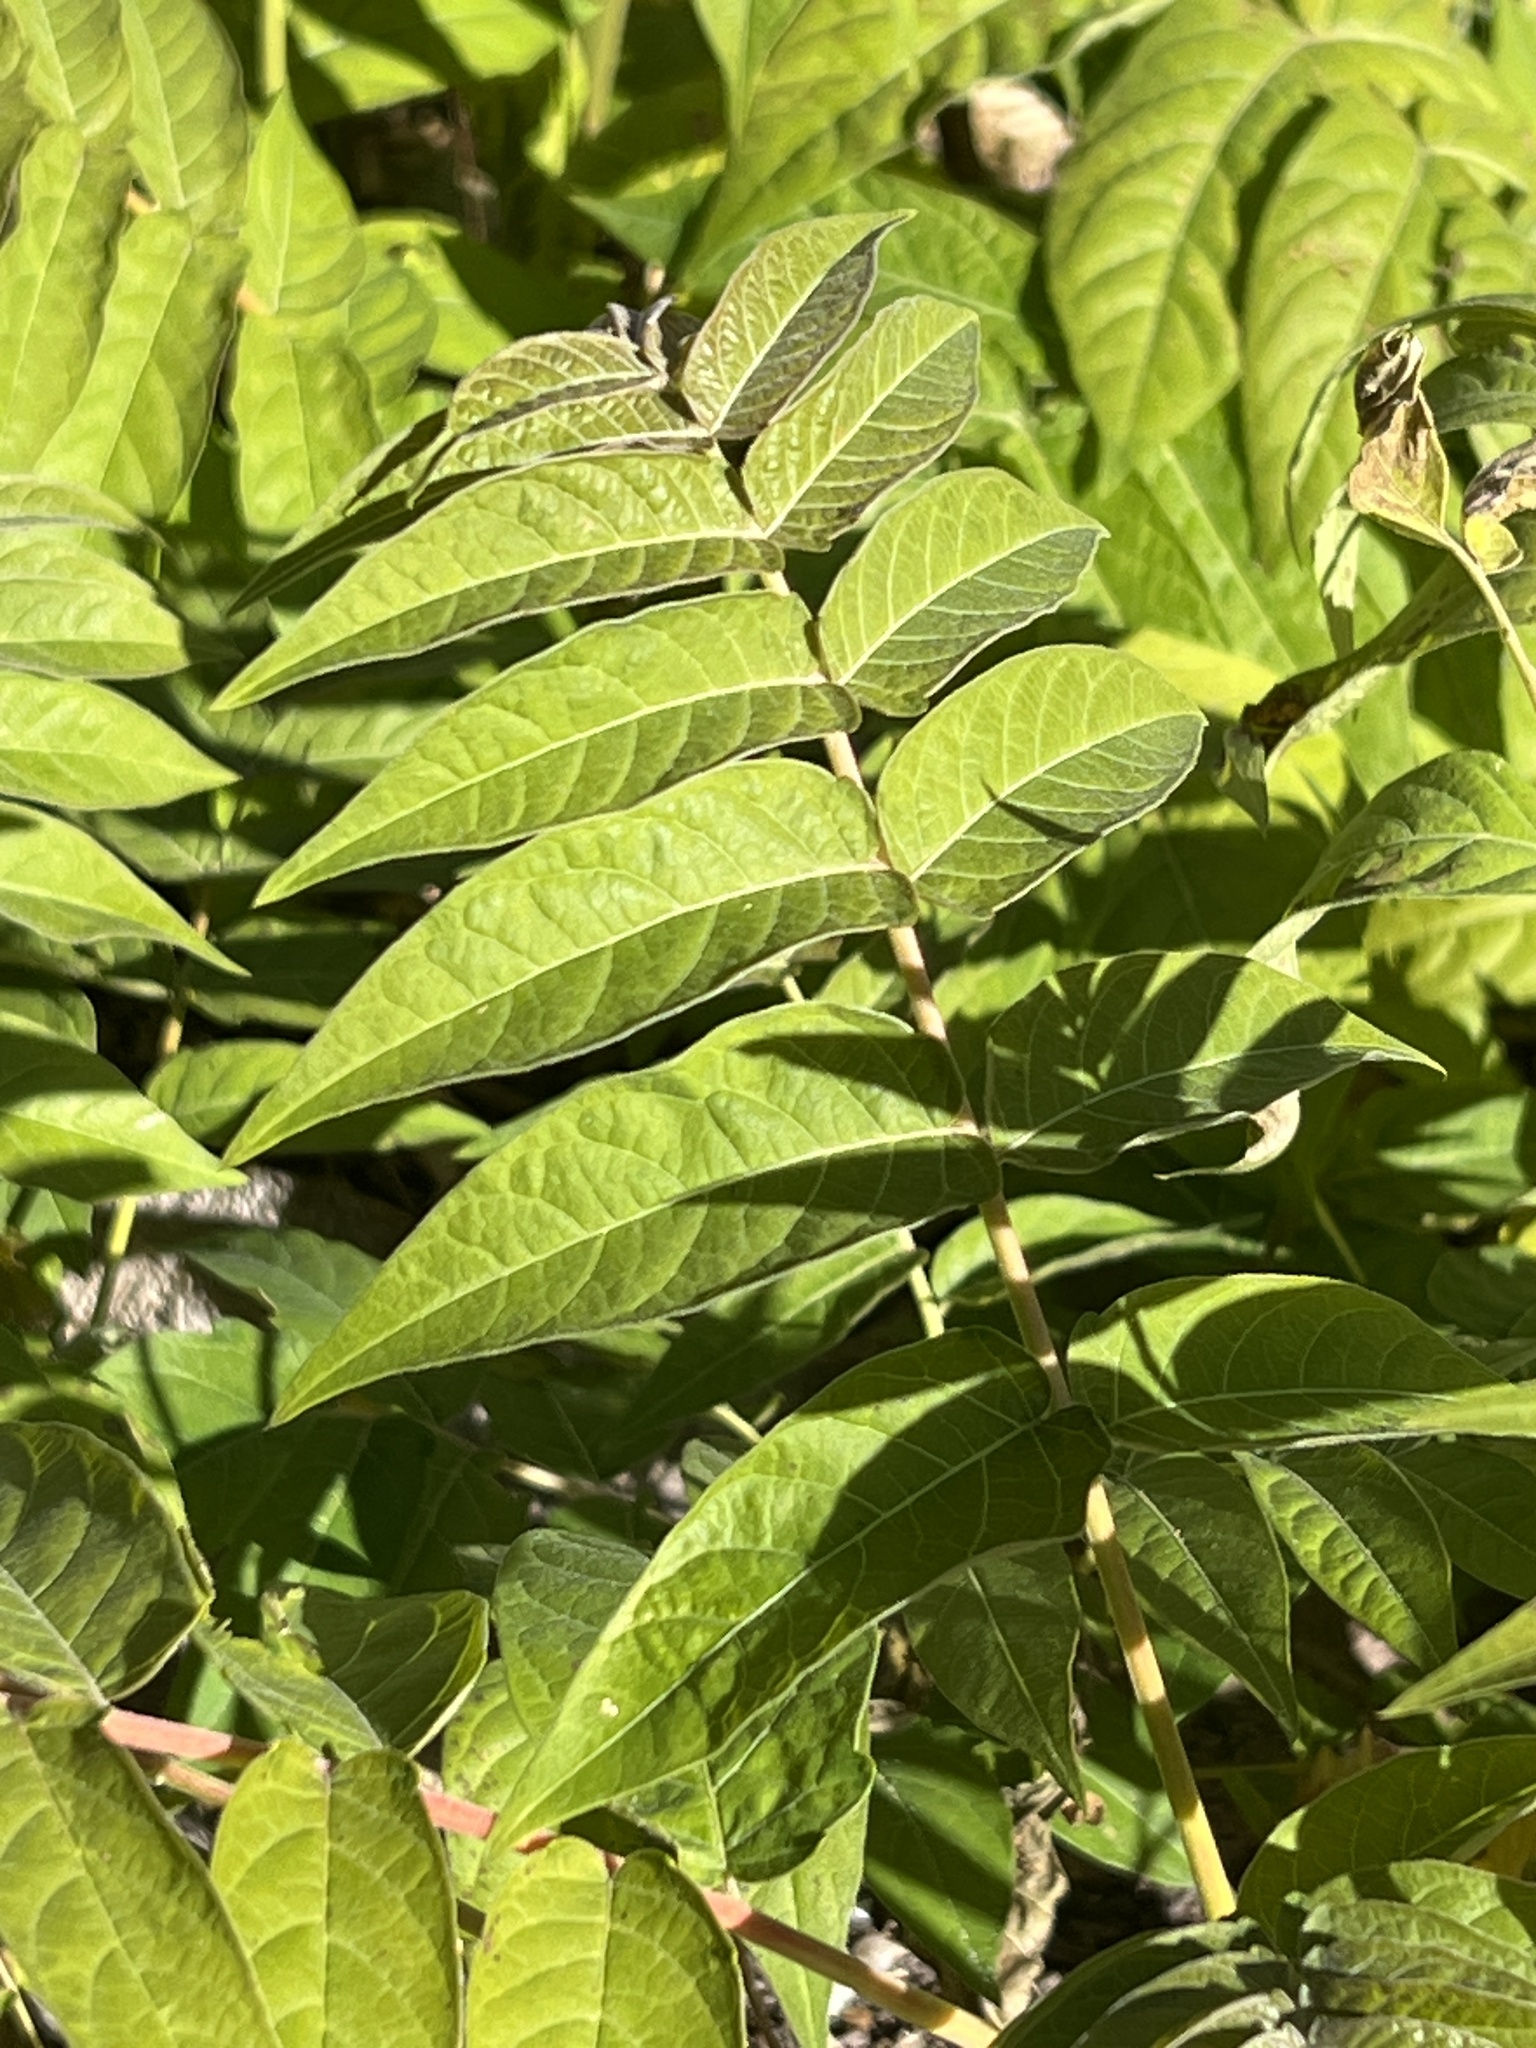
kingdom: Plantae
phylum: Tracheophyta
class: Magnoliopsida
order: Sapindales
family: Simaroubaceae
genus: Ailanthus
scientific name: Ailanthus altissima
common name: Tree-of-heaven
